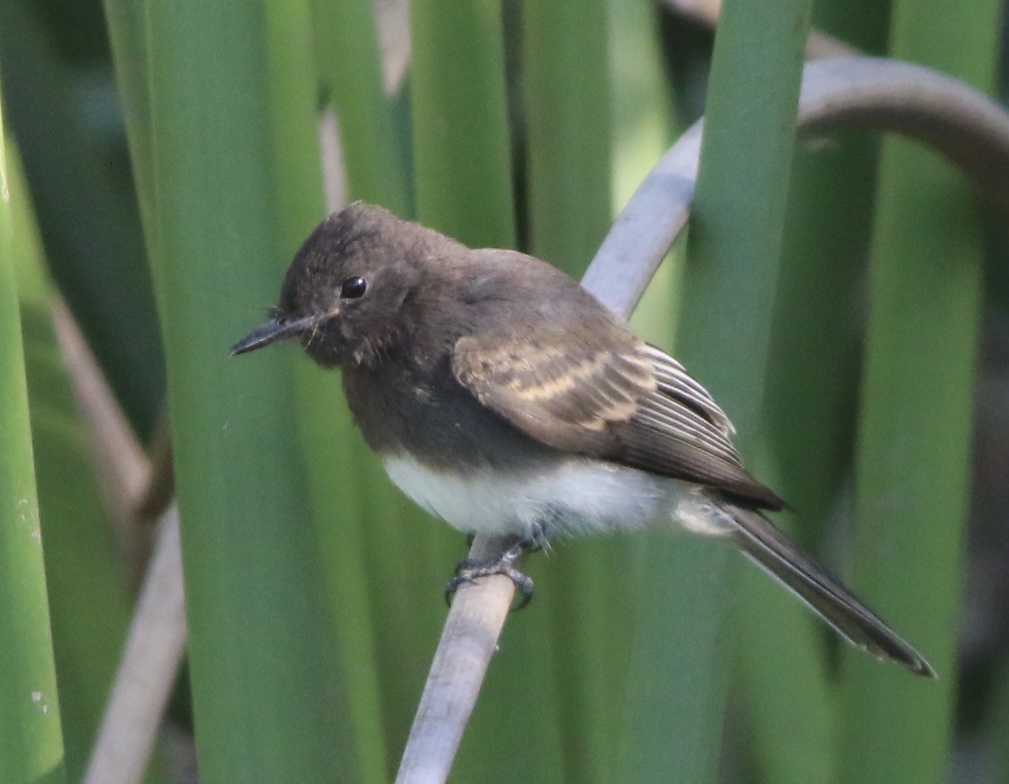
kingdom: Animalia
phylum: Chordata
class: Aves
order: Passeriformes
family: Tyrannidae
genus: Sayornis
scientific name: Sayornis nigricans
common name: Black phoebe
